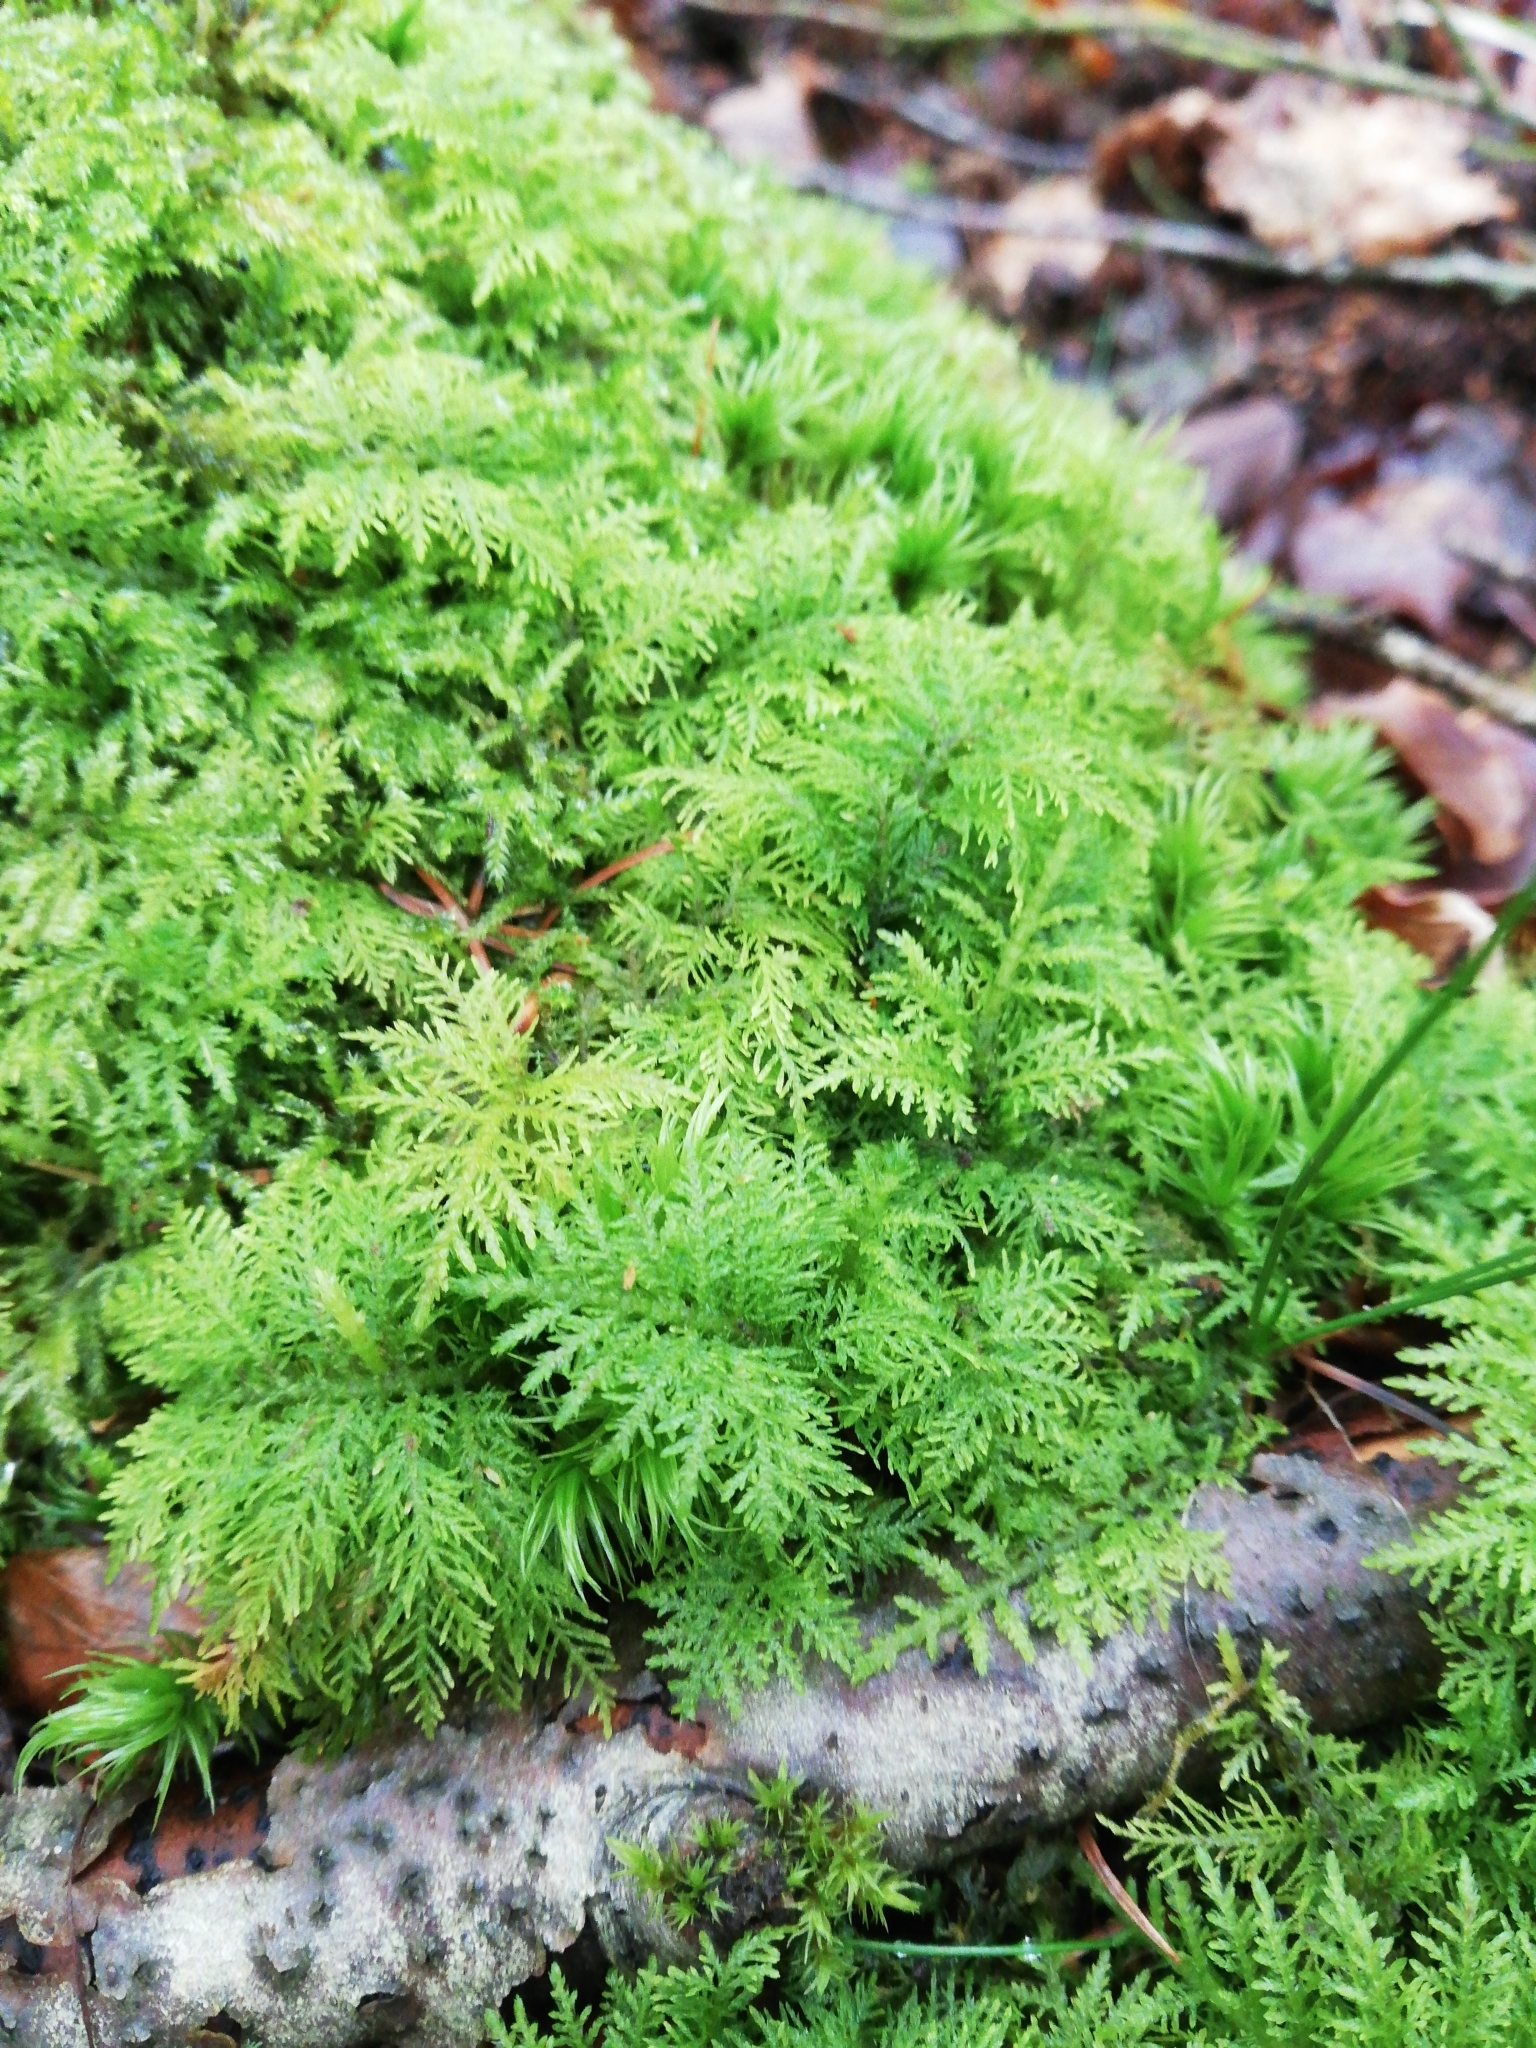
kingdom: Plantae
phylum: Bryophyta
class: Bryopsida
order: Hypnales
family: Thuidiaceae
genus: Thuidium
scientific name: Thuidium tamariscinum
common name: Common tamarisk-moss
